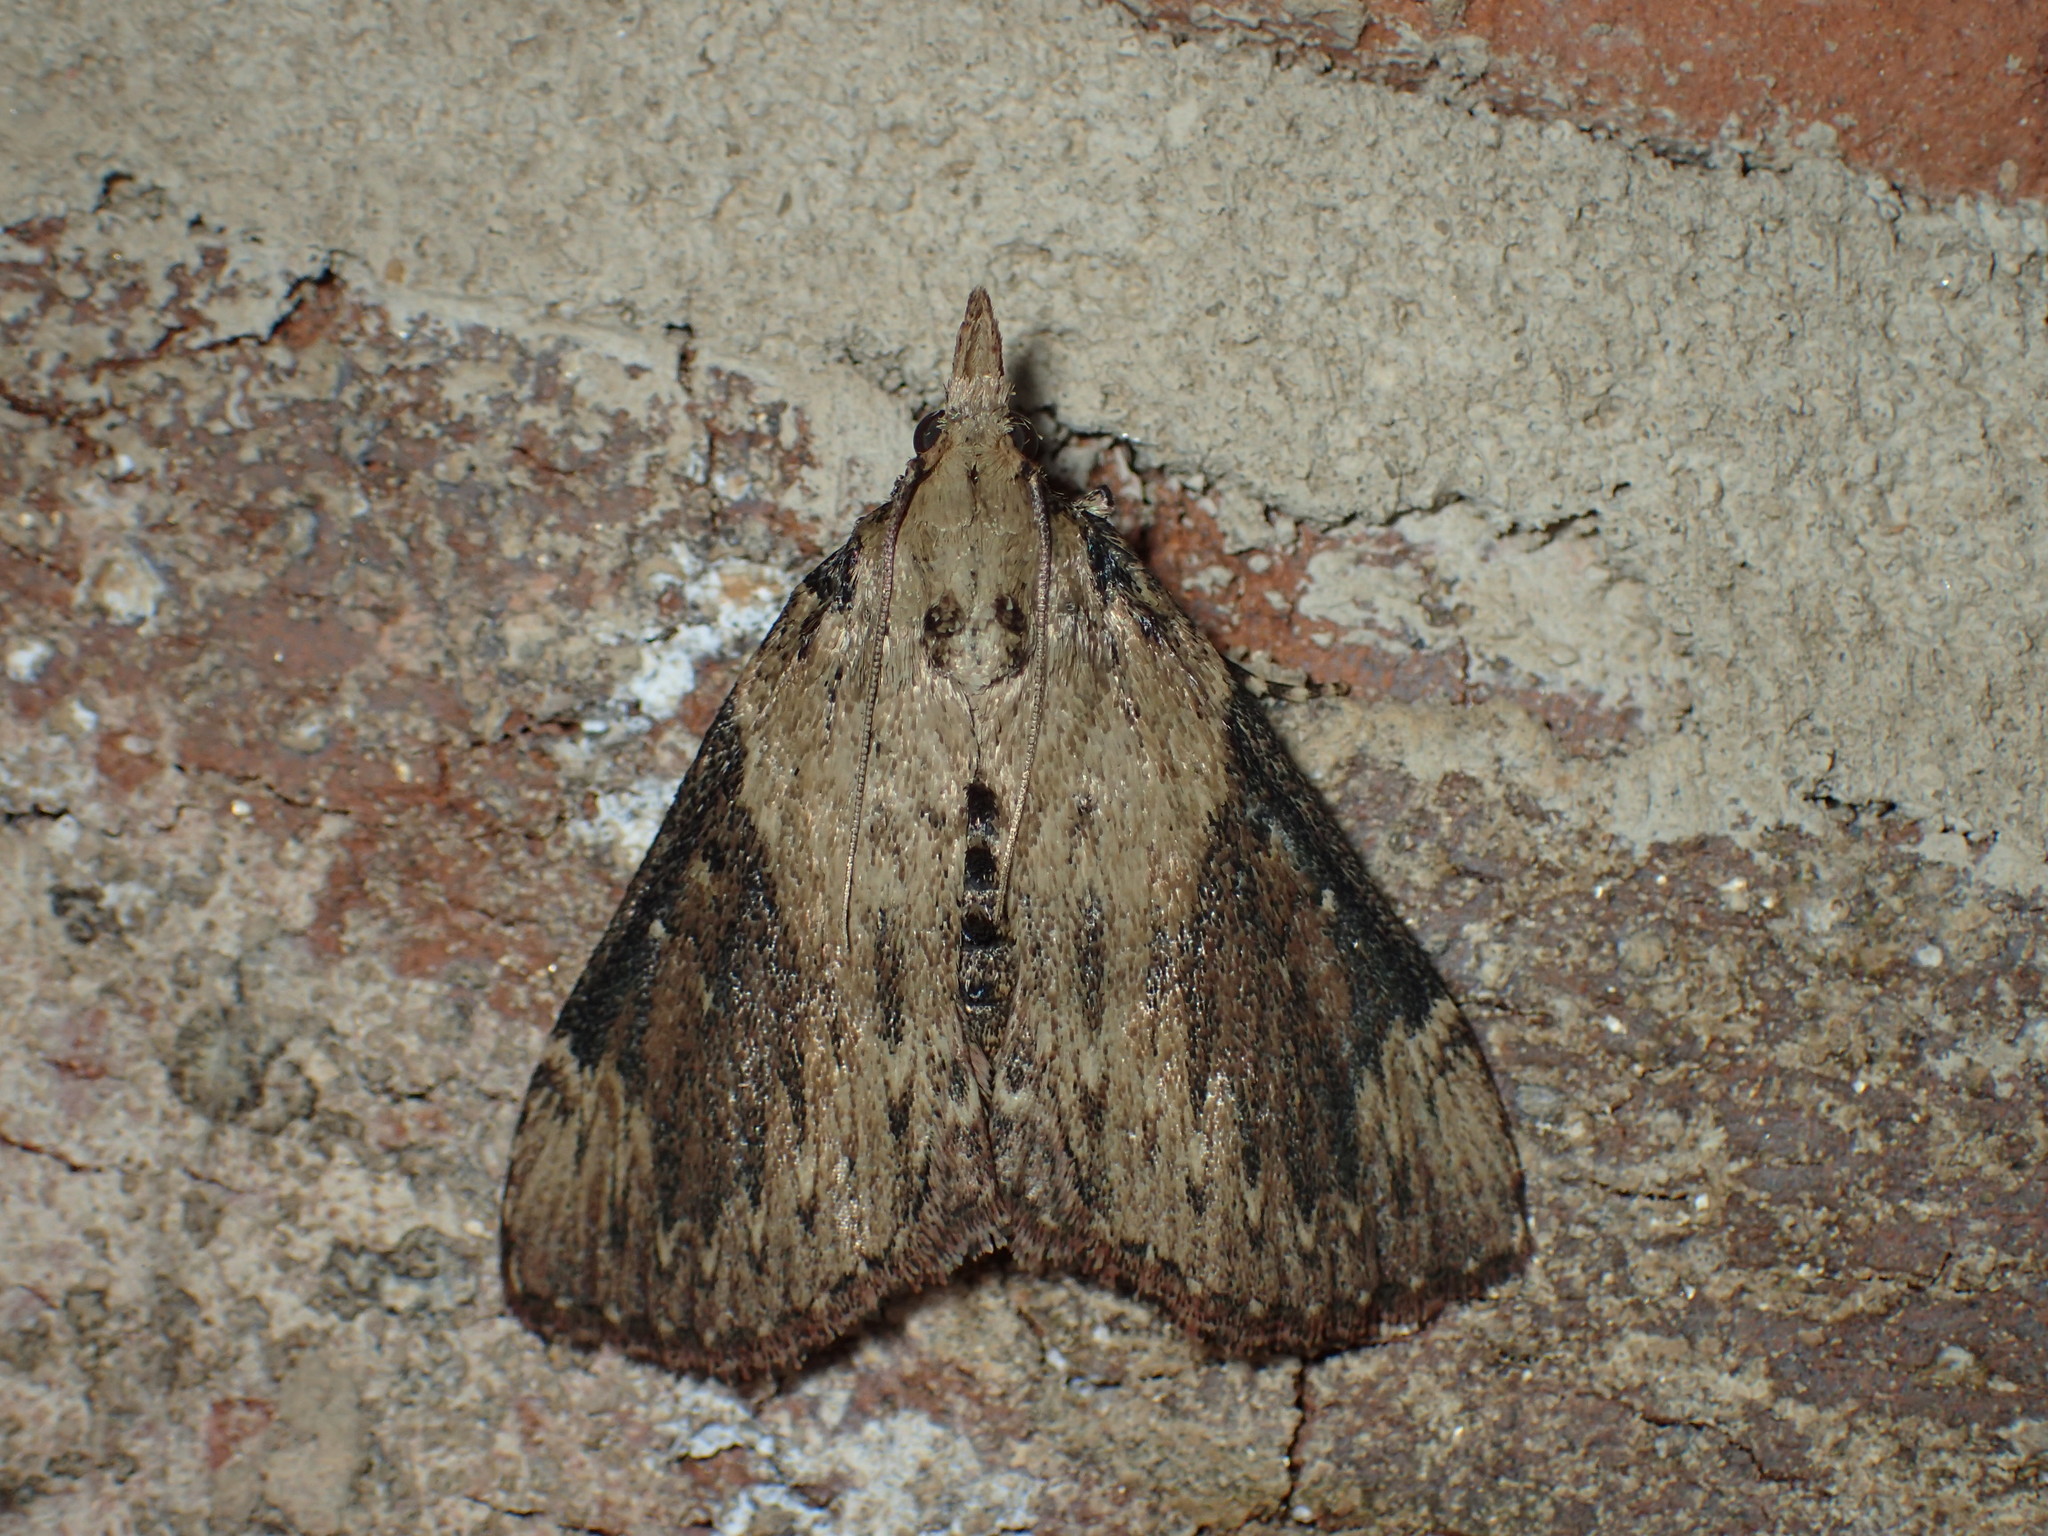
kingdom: Animalia
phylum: Arthropoda
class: Insecta
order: Lepidoptera
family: Pyralidae
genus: Omphalocera
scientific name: Omphalocera cariosa
